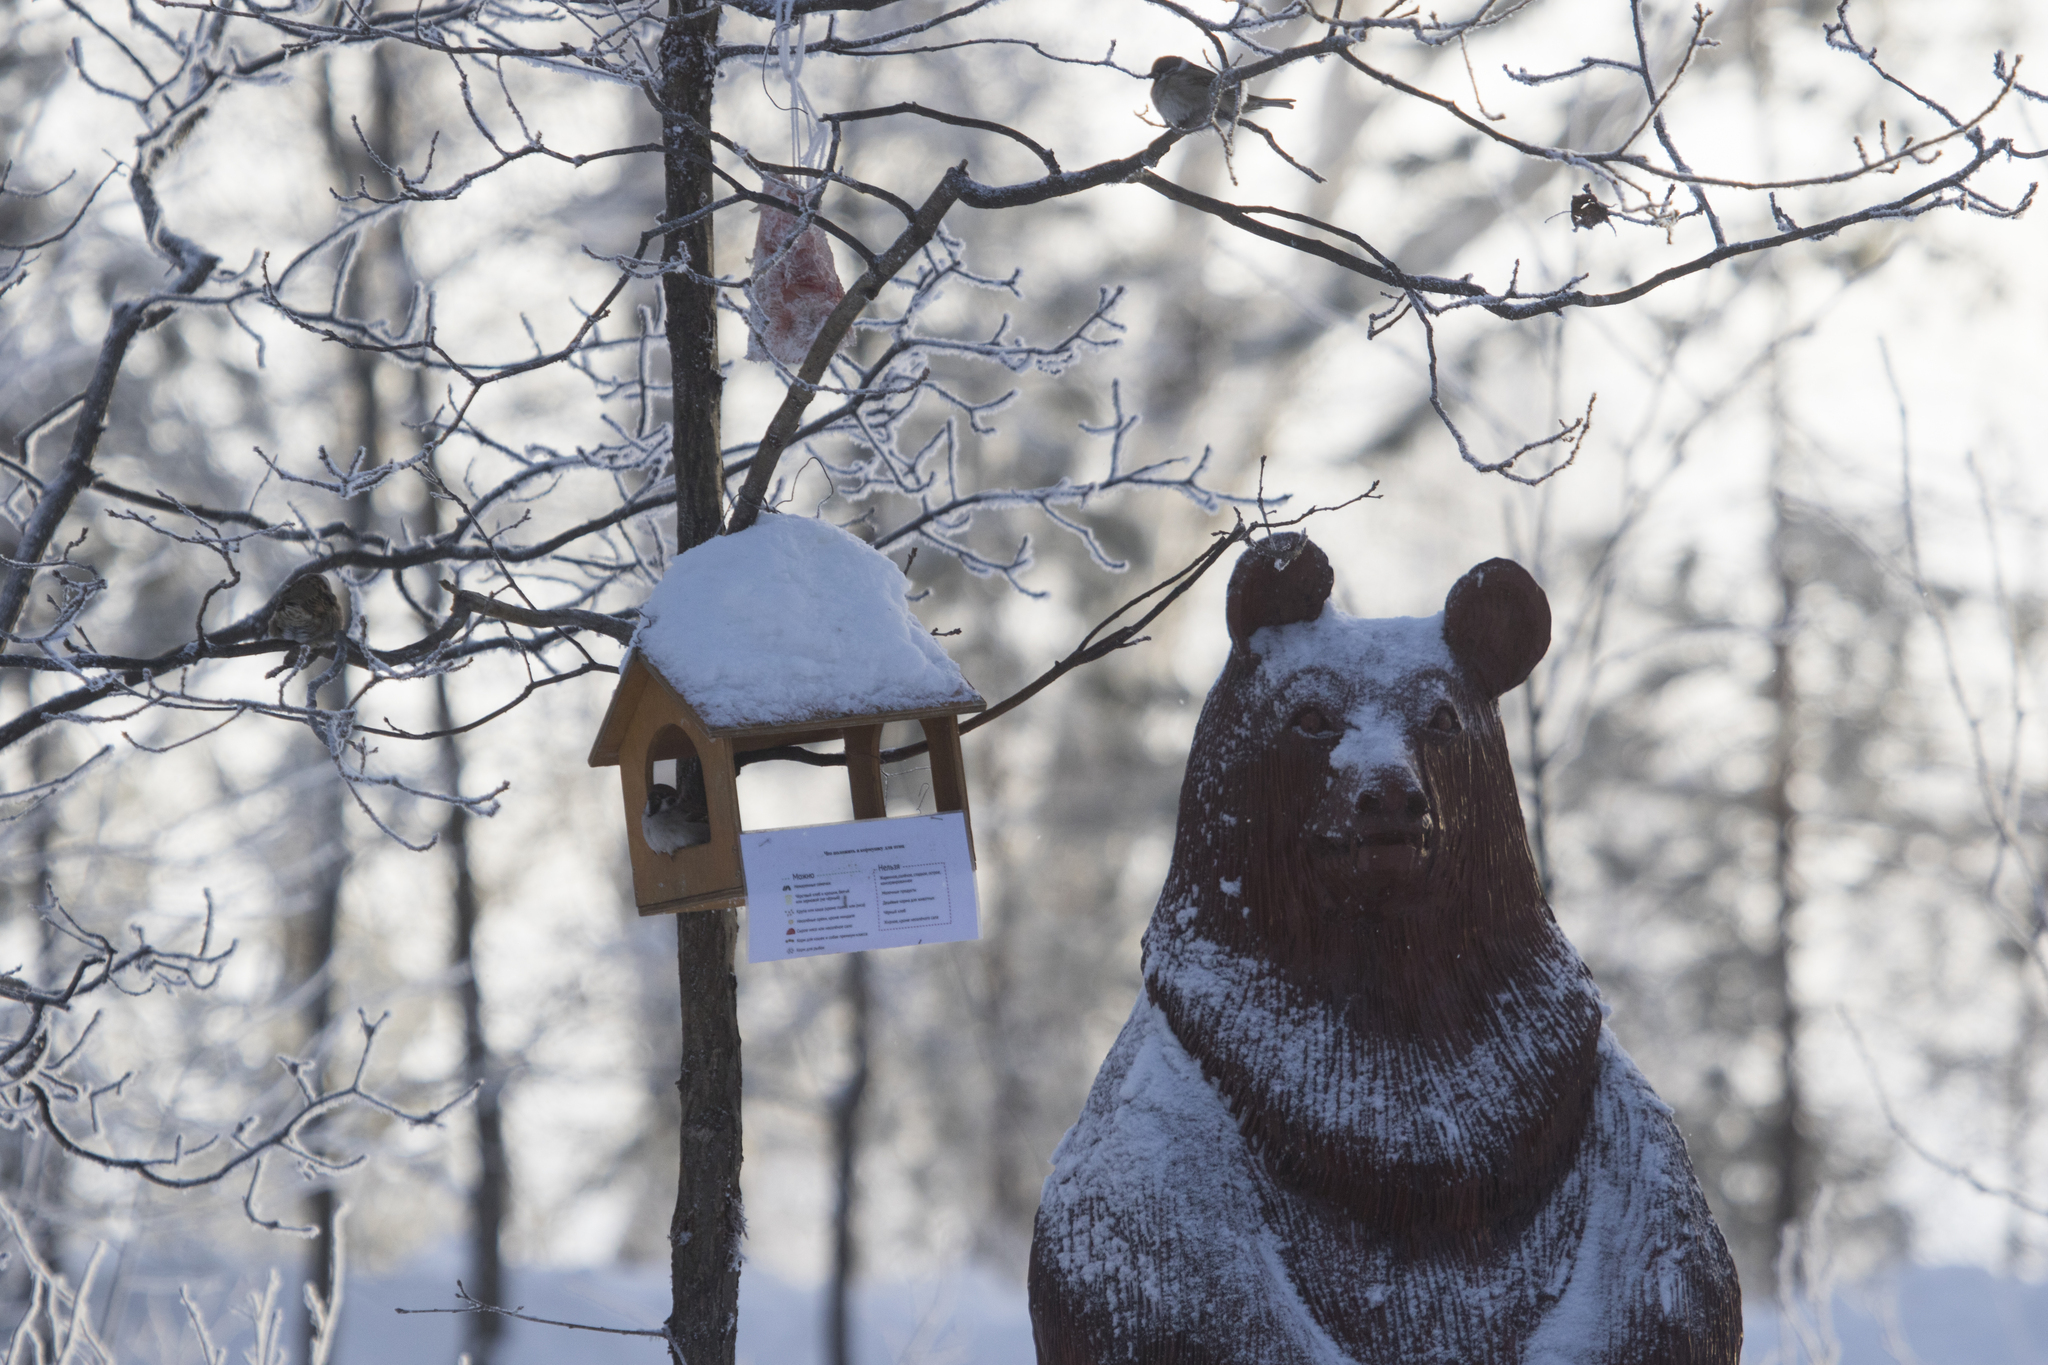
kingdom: Animalia
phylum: Chordata
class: Aves
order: Passeriformes
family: Passeridae
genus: Passer
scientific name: Passer montanus
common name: Eurasian tree sparrow
